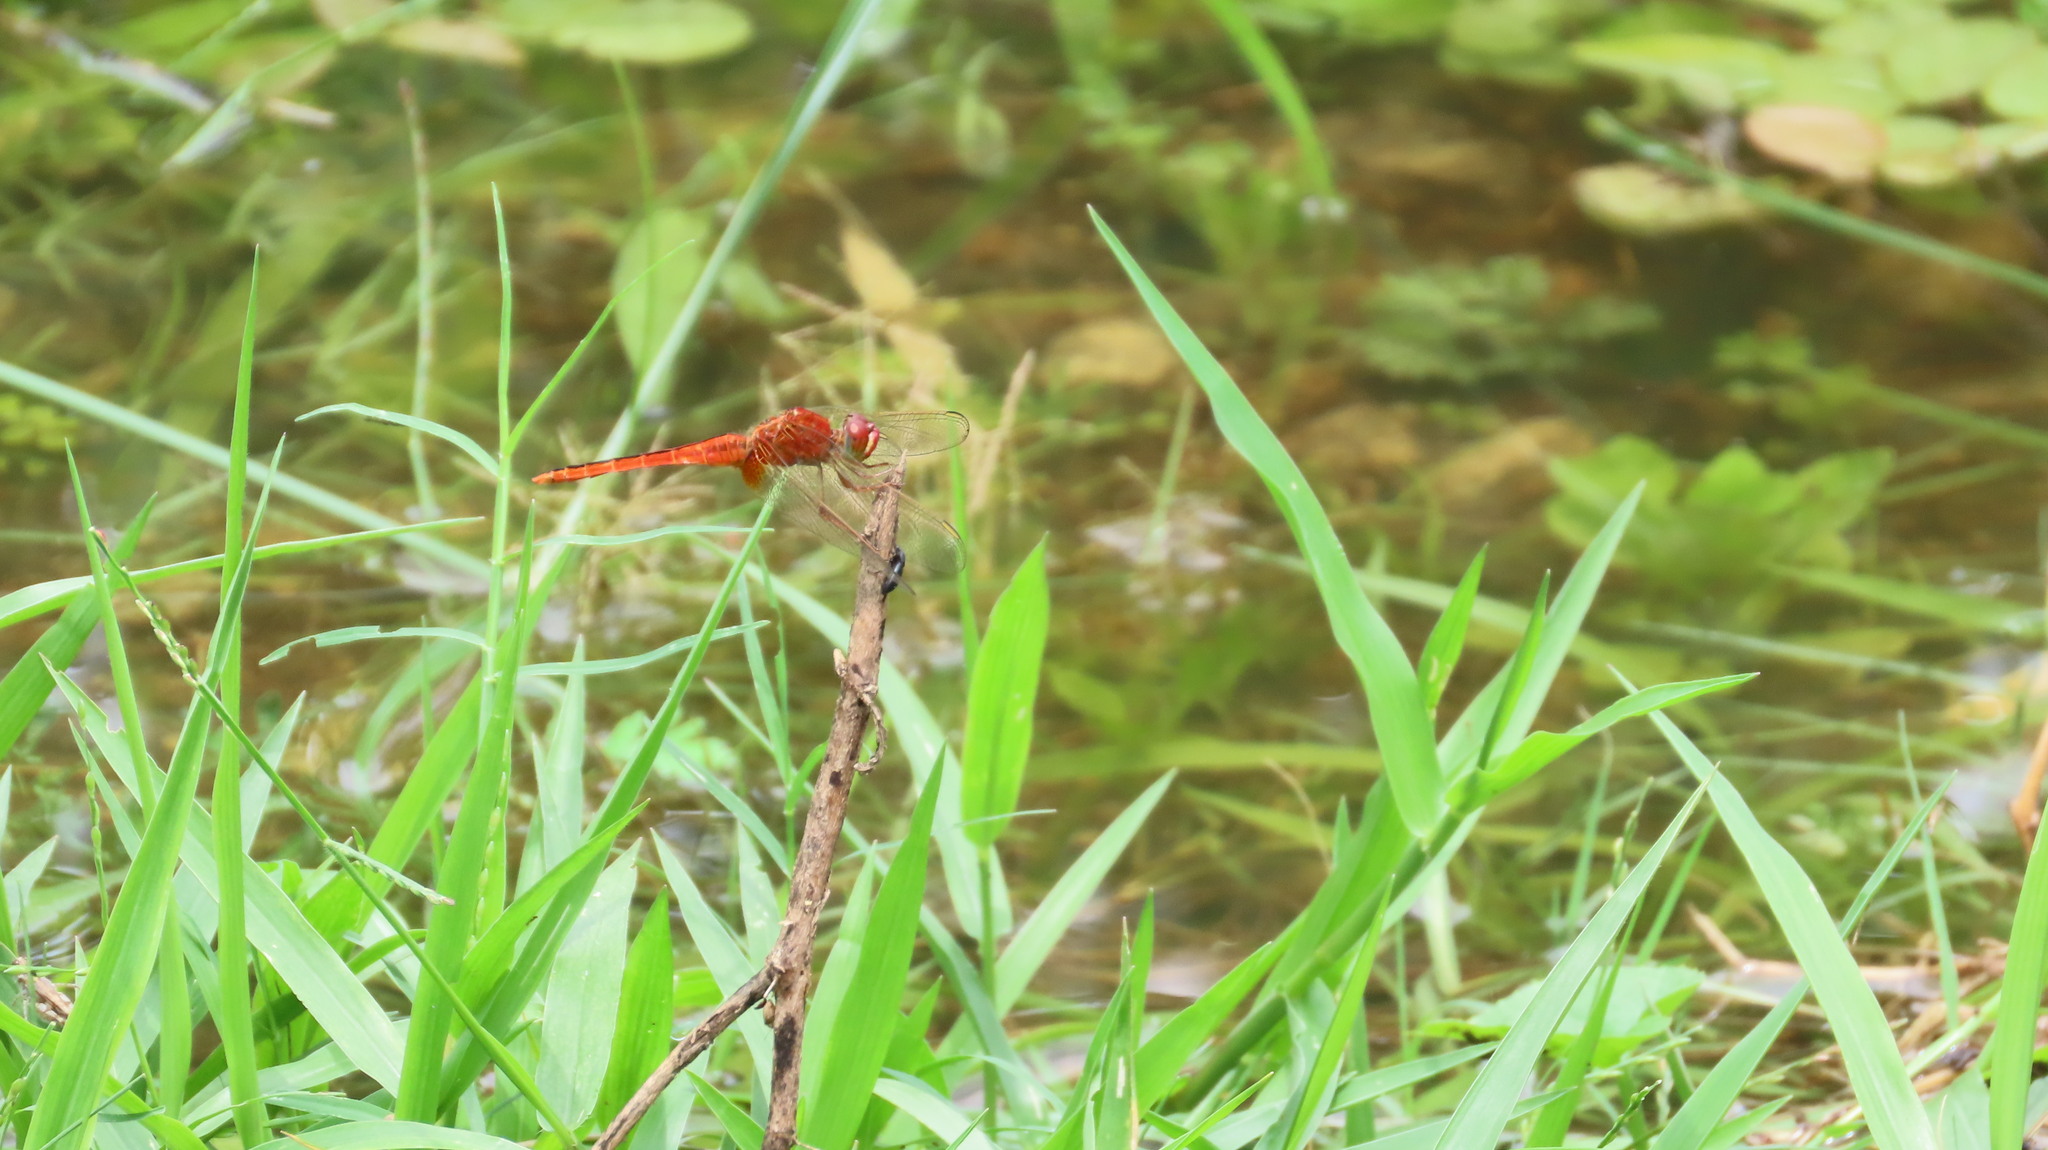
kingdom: Animalia
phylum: Arthropoda
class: Insecta
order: Odonata
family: Libellulidae
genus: Crocothemis
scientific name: Crocothemis servilia
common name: Scarlet skimmer
